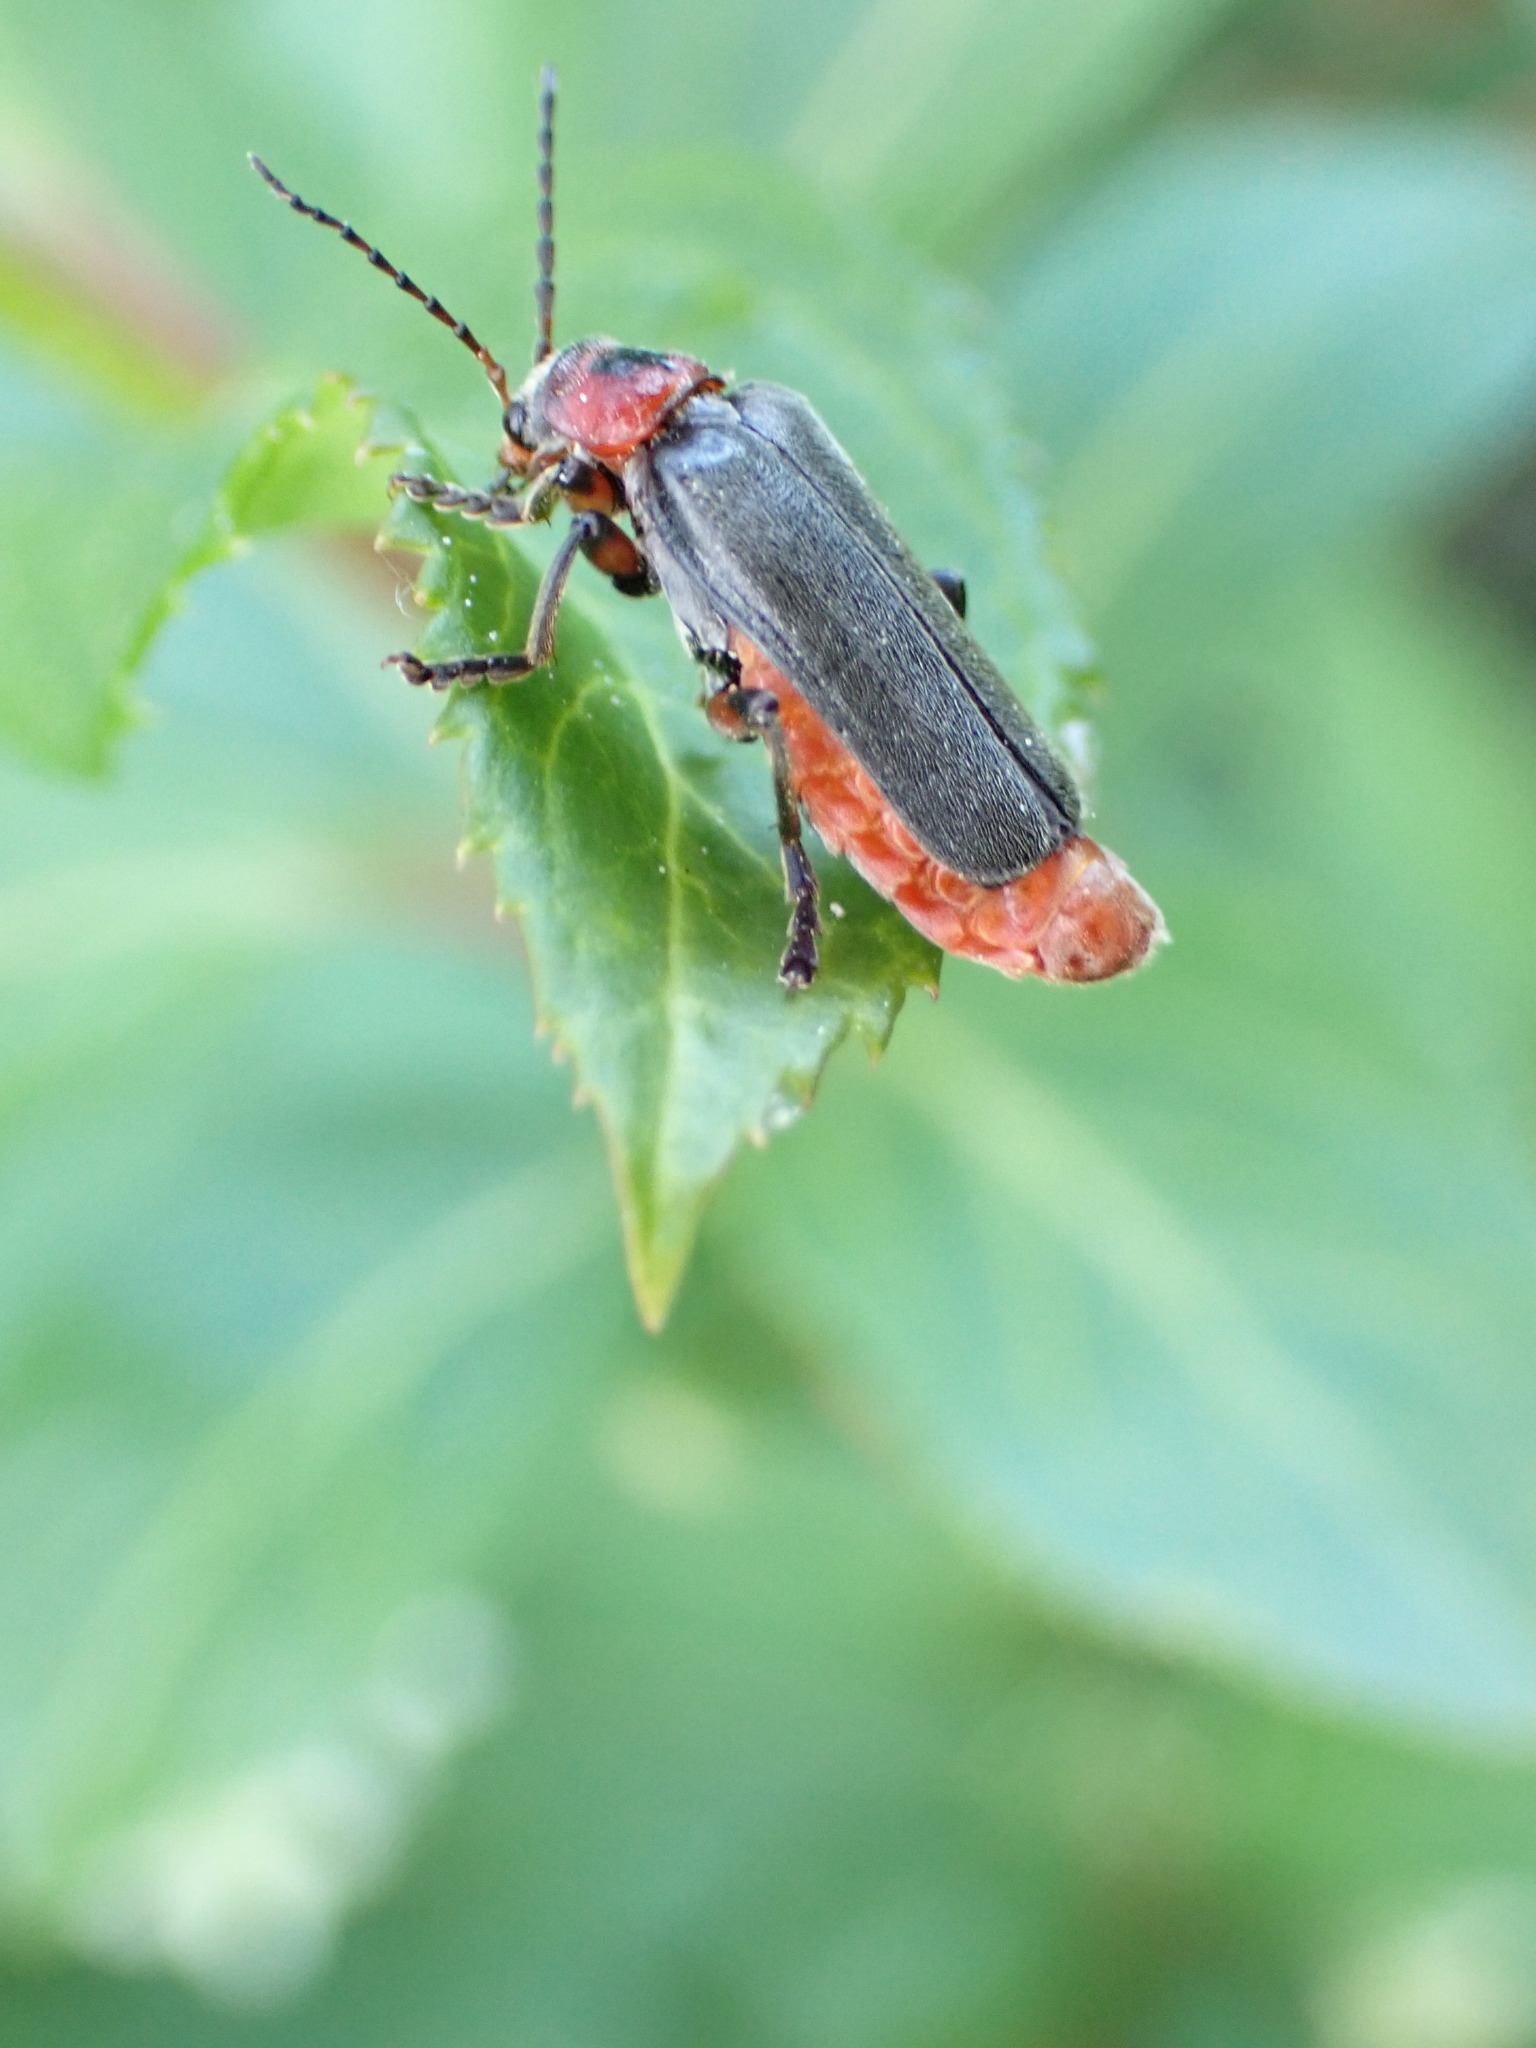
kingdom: Animalia
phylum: Arthropoda
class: Insecta
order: Coleoptera
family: Cantharidae
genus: Cantharis
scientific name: Cantharis rustica
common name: Soldier beetle
